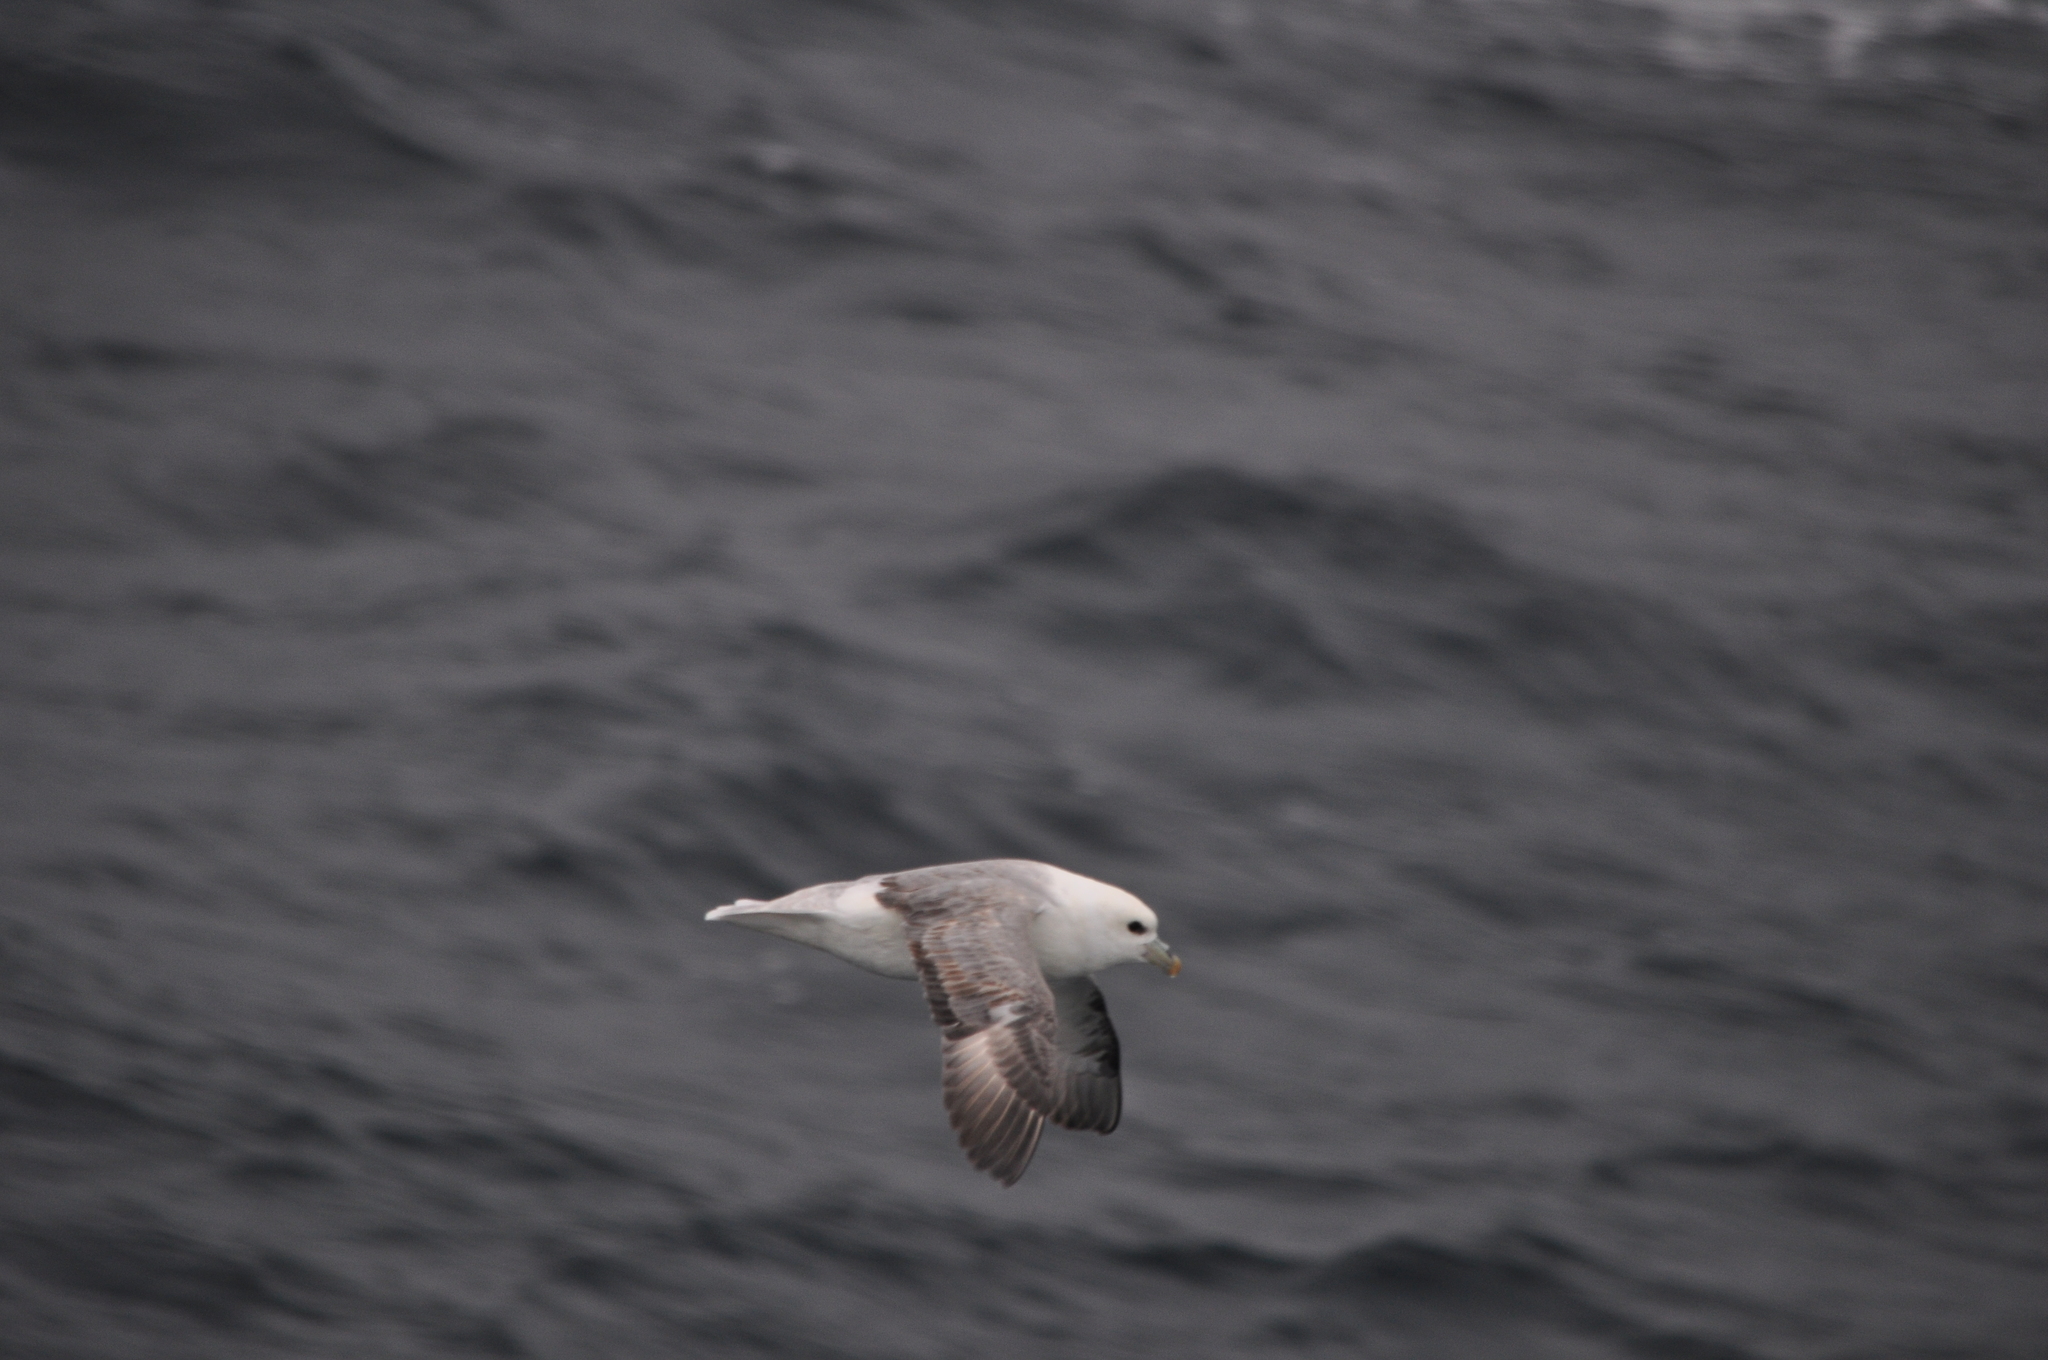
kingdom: Animalia
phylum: Chordata
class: Aves
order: Procellariiformes
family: Procellariidae
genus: Fulmarus
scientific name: Fulmarus glacialis
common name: Northern fulmar
